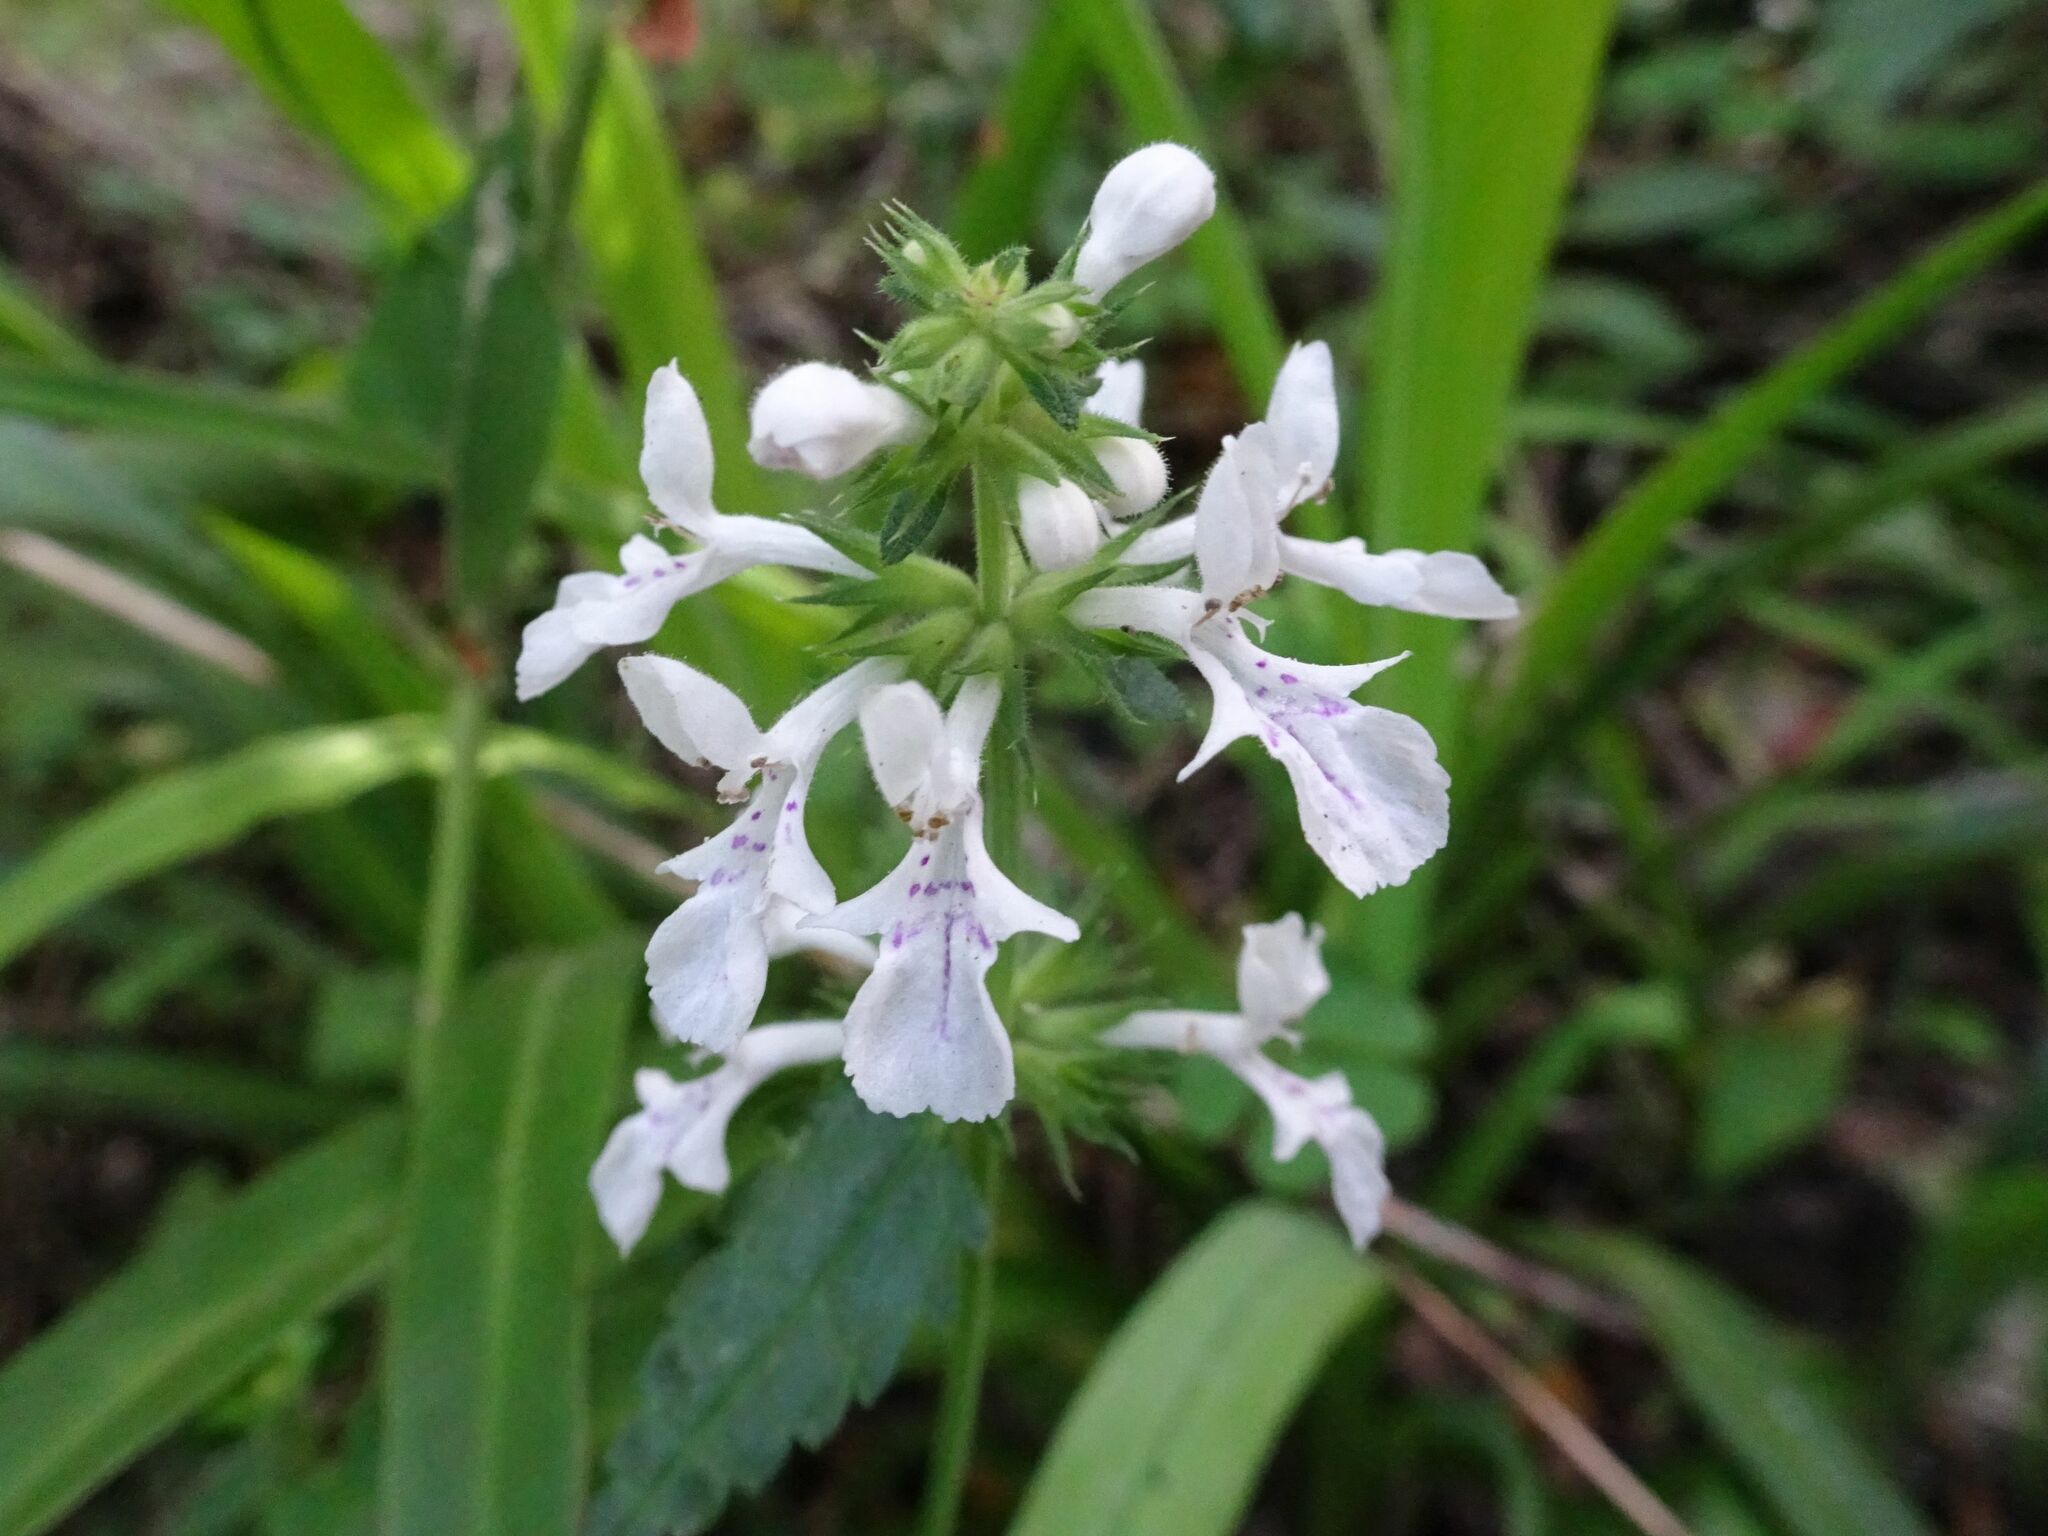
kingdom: Plantae
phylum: Tracheophyta
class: Magnoliopsida
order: Lamiales
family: Lamiaceae
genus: Stachys
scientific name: Stachys aethiopica
